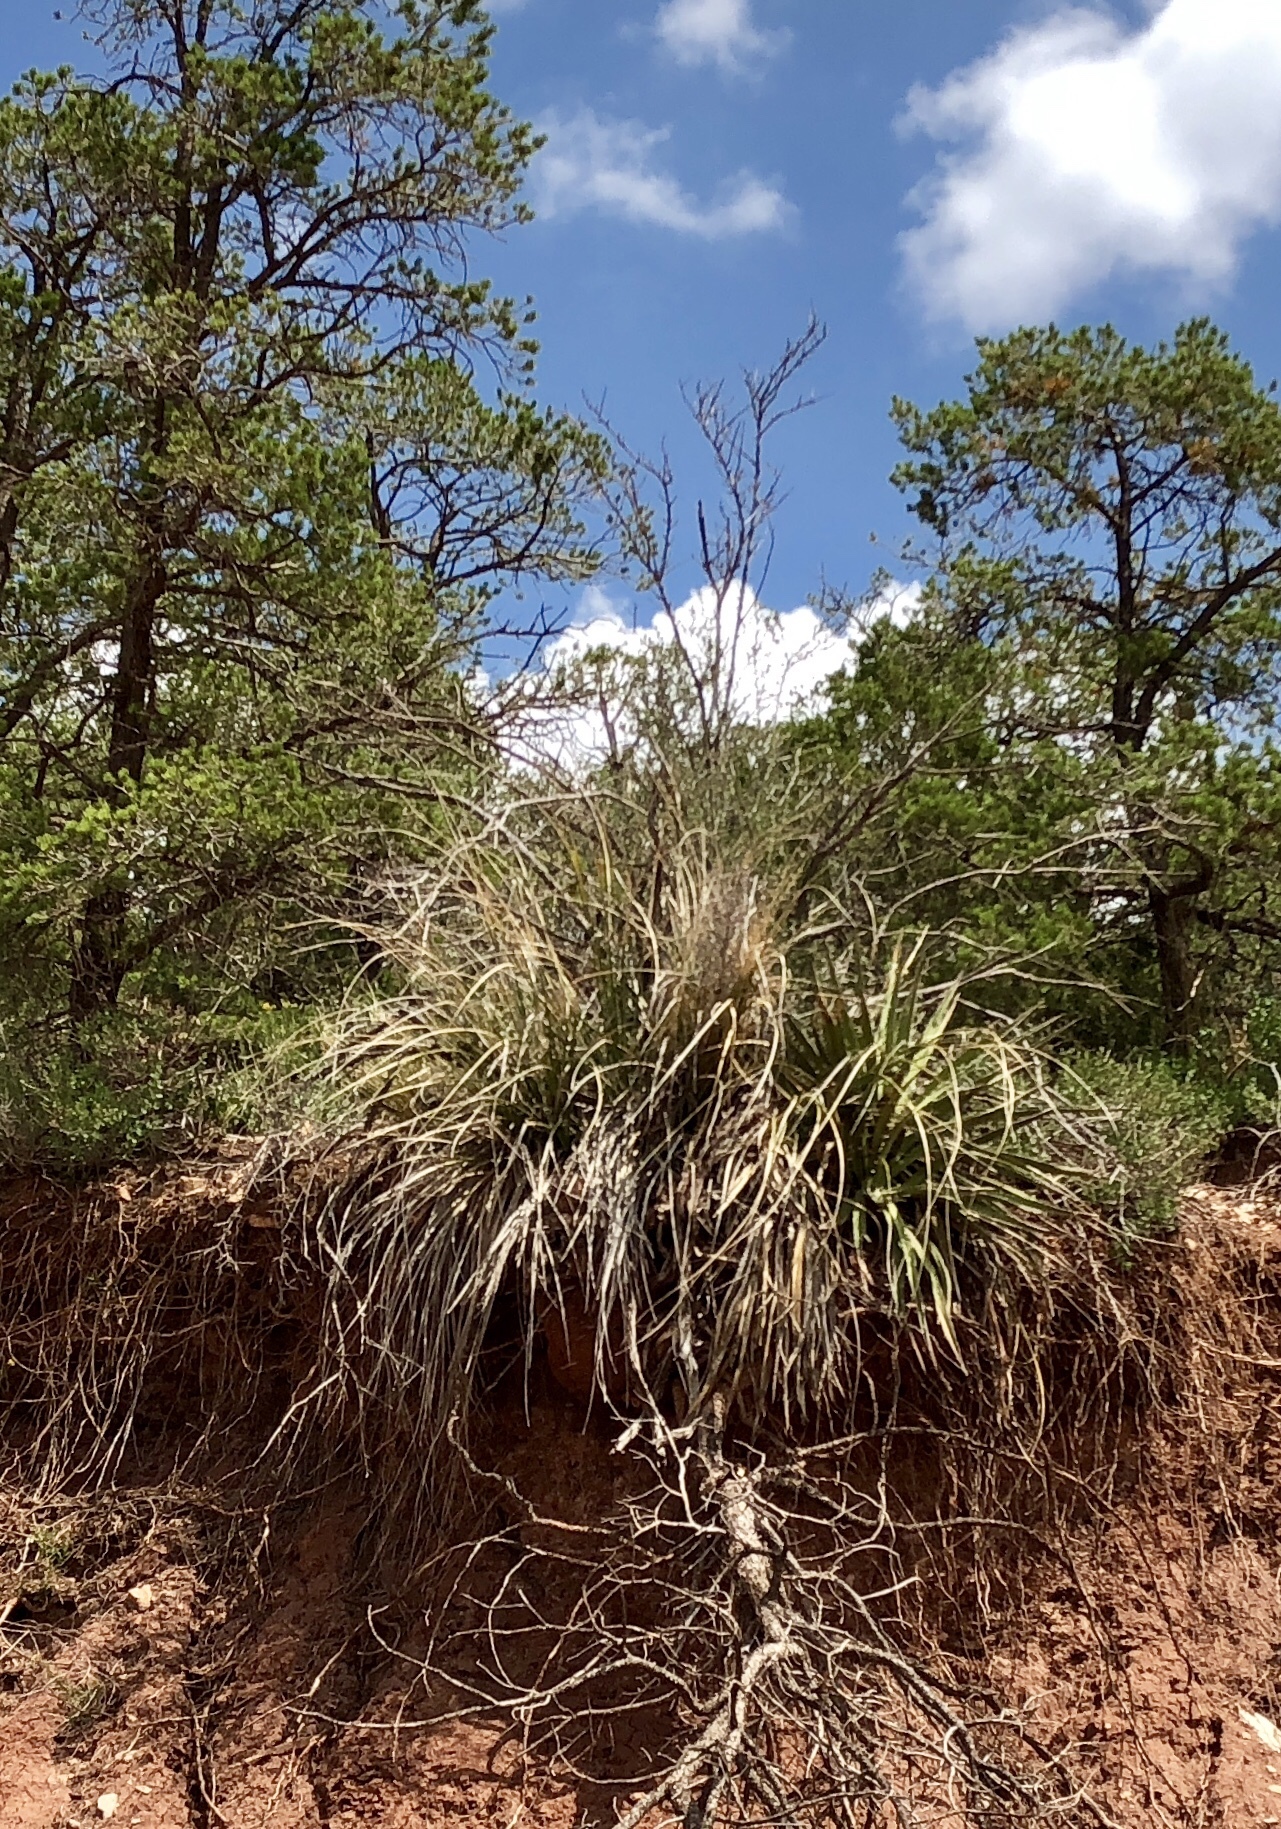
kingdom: Plantae
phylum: Tracheophyta
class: Liliopsida
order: Asparagales
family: Asparagaceae
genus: Nolina
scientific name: Nolina microcarpa
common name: Bear-grass
